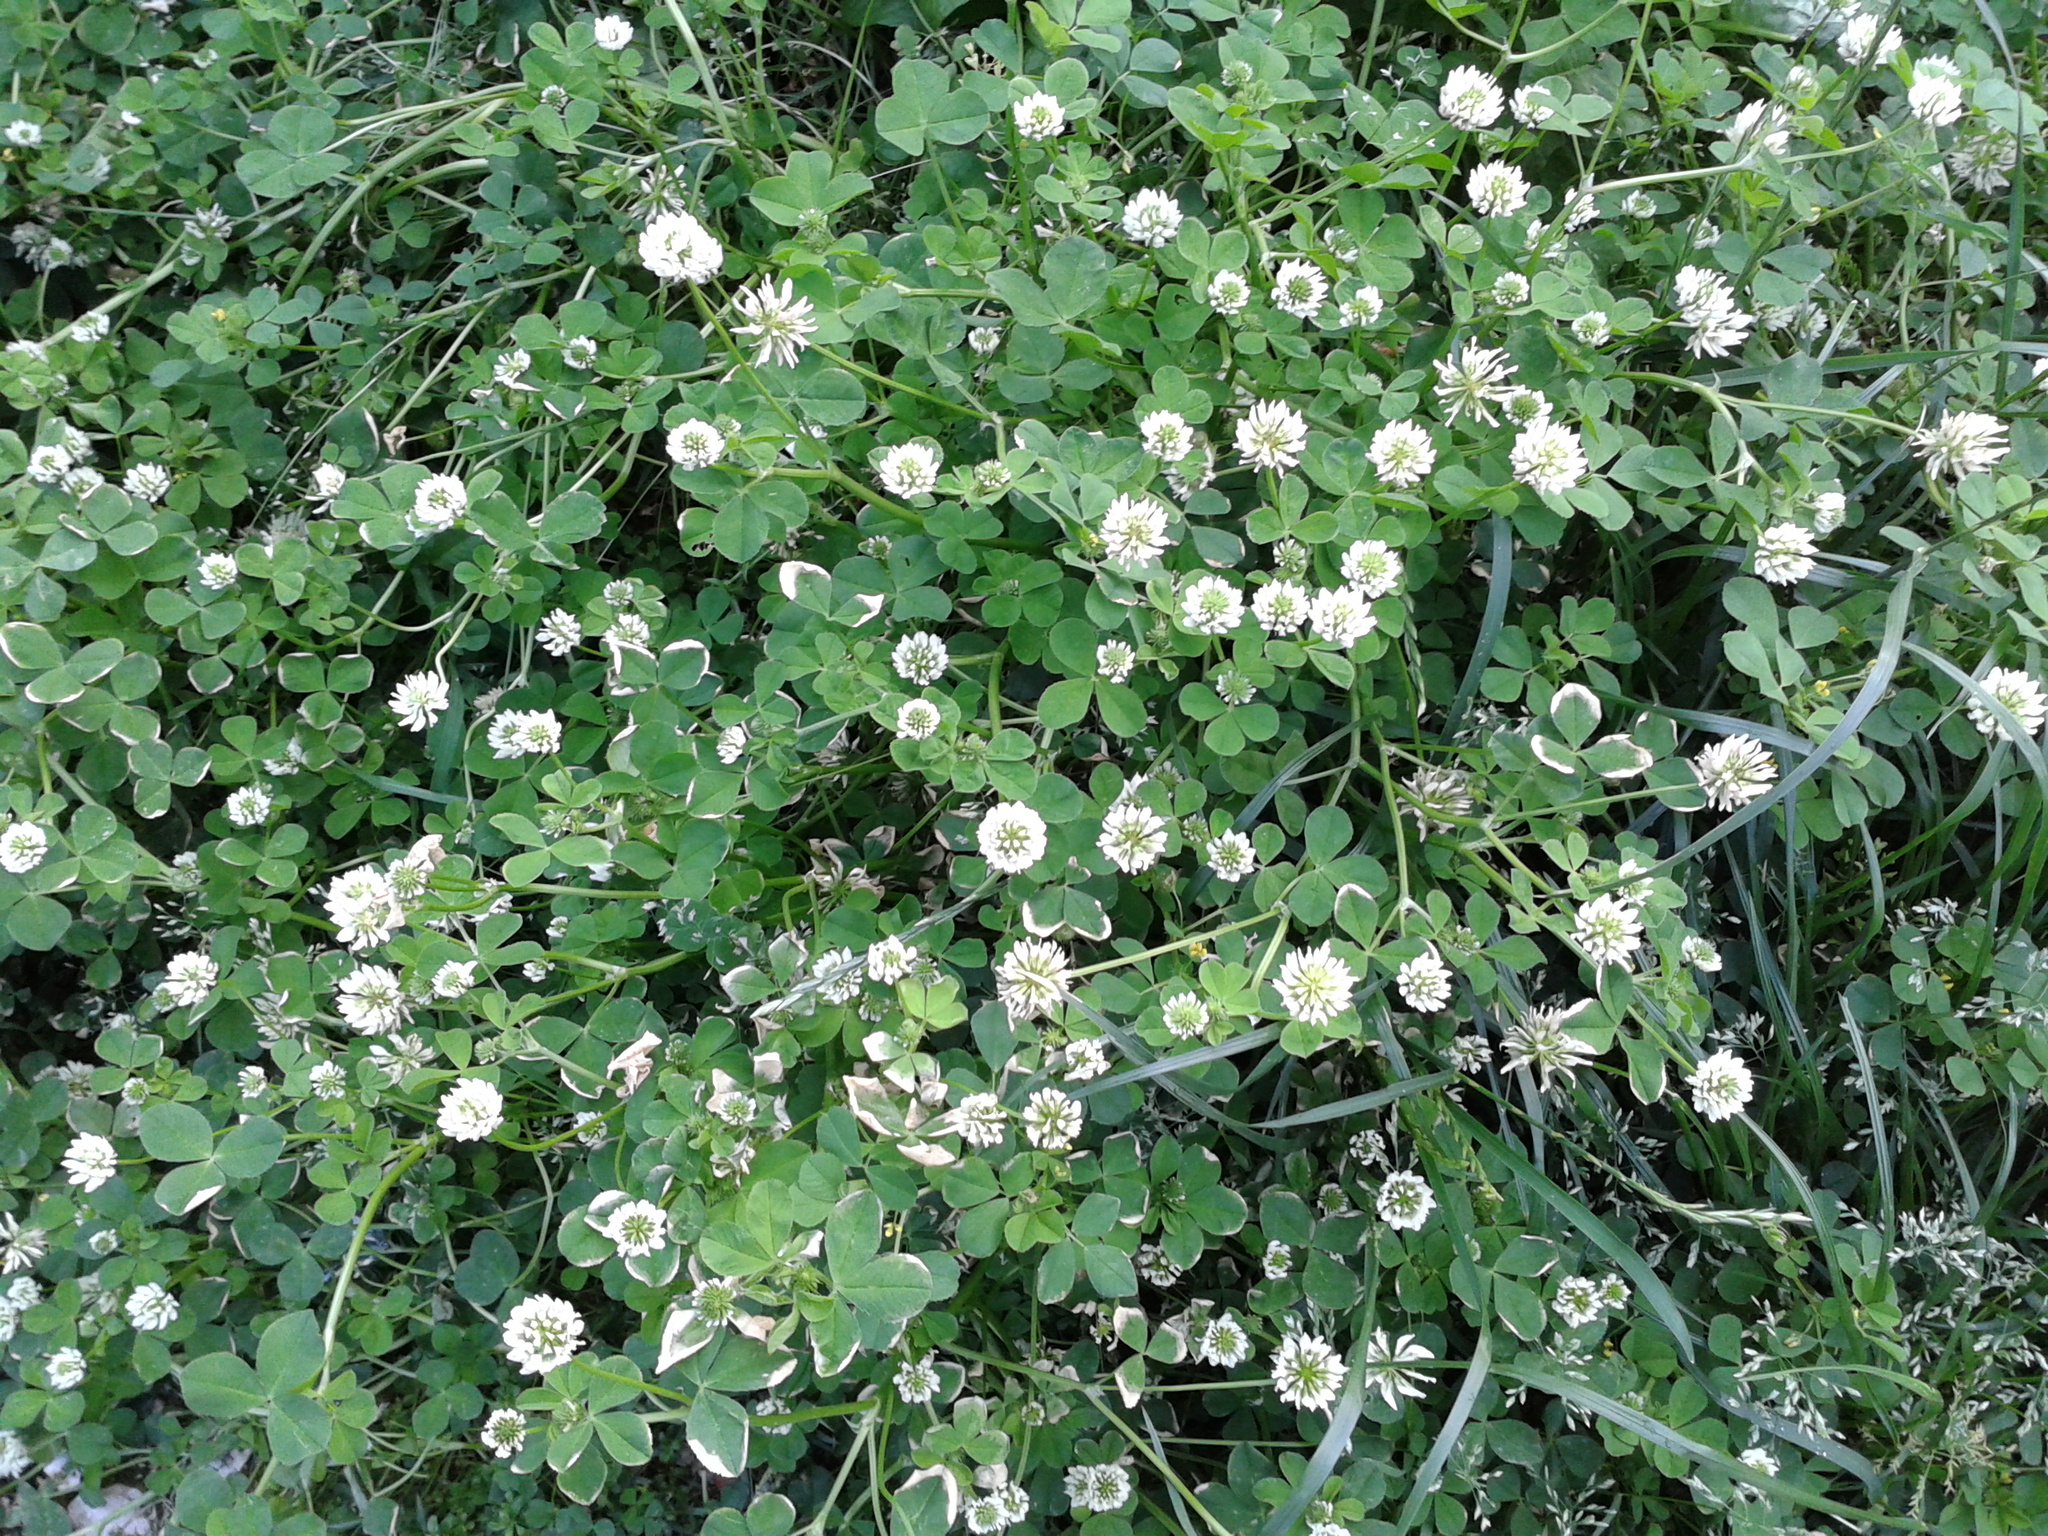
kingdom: Plantae
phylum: Tracheophyta
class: Magnoliopsida
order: Fabales
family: Fabaceae
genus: Trifolium
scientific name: Trifolium nigrescens
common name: Small white clover
